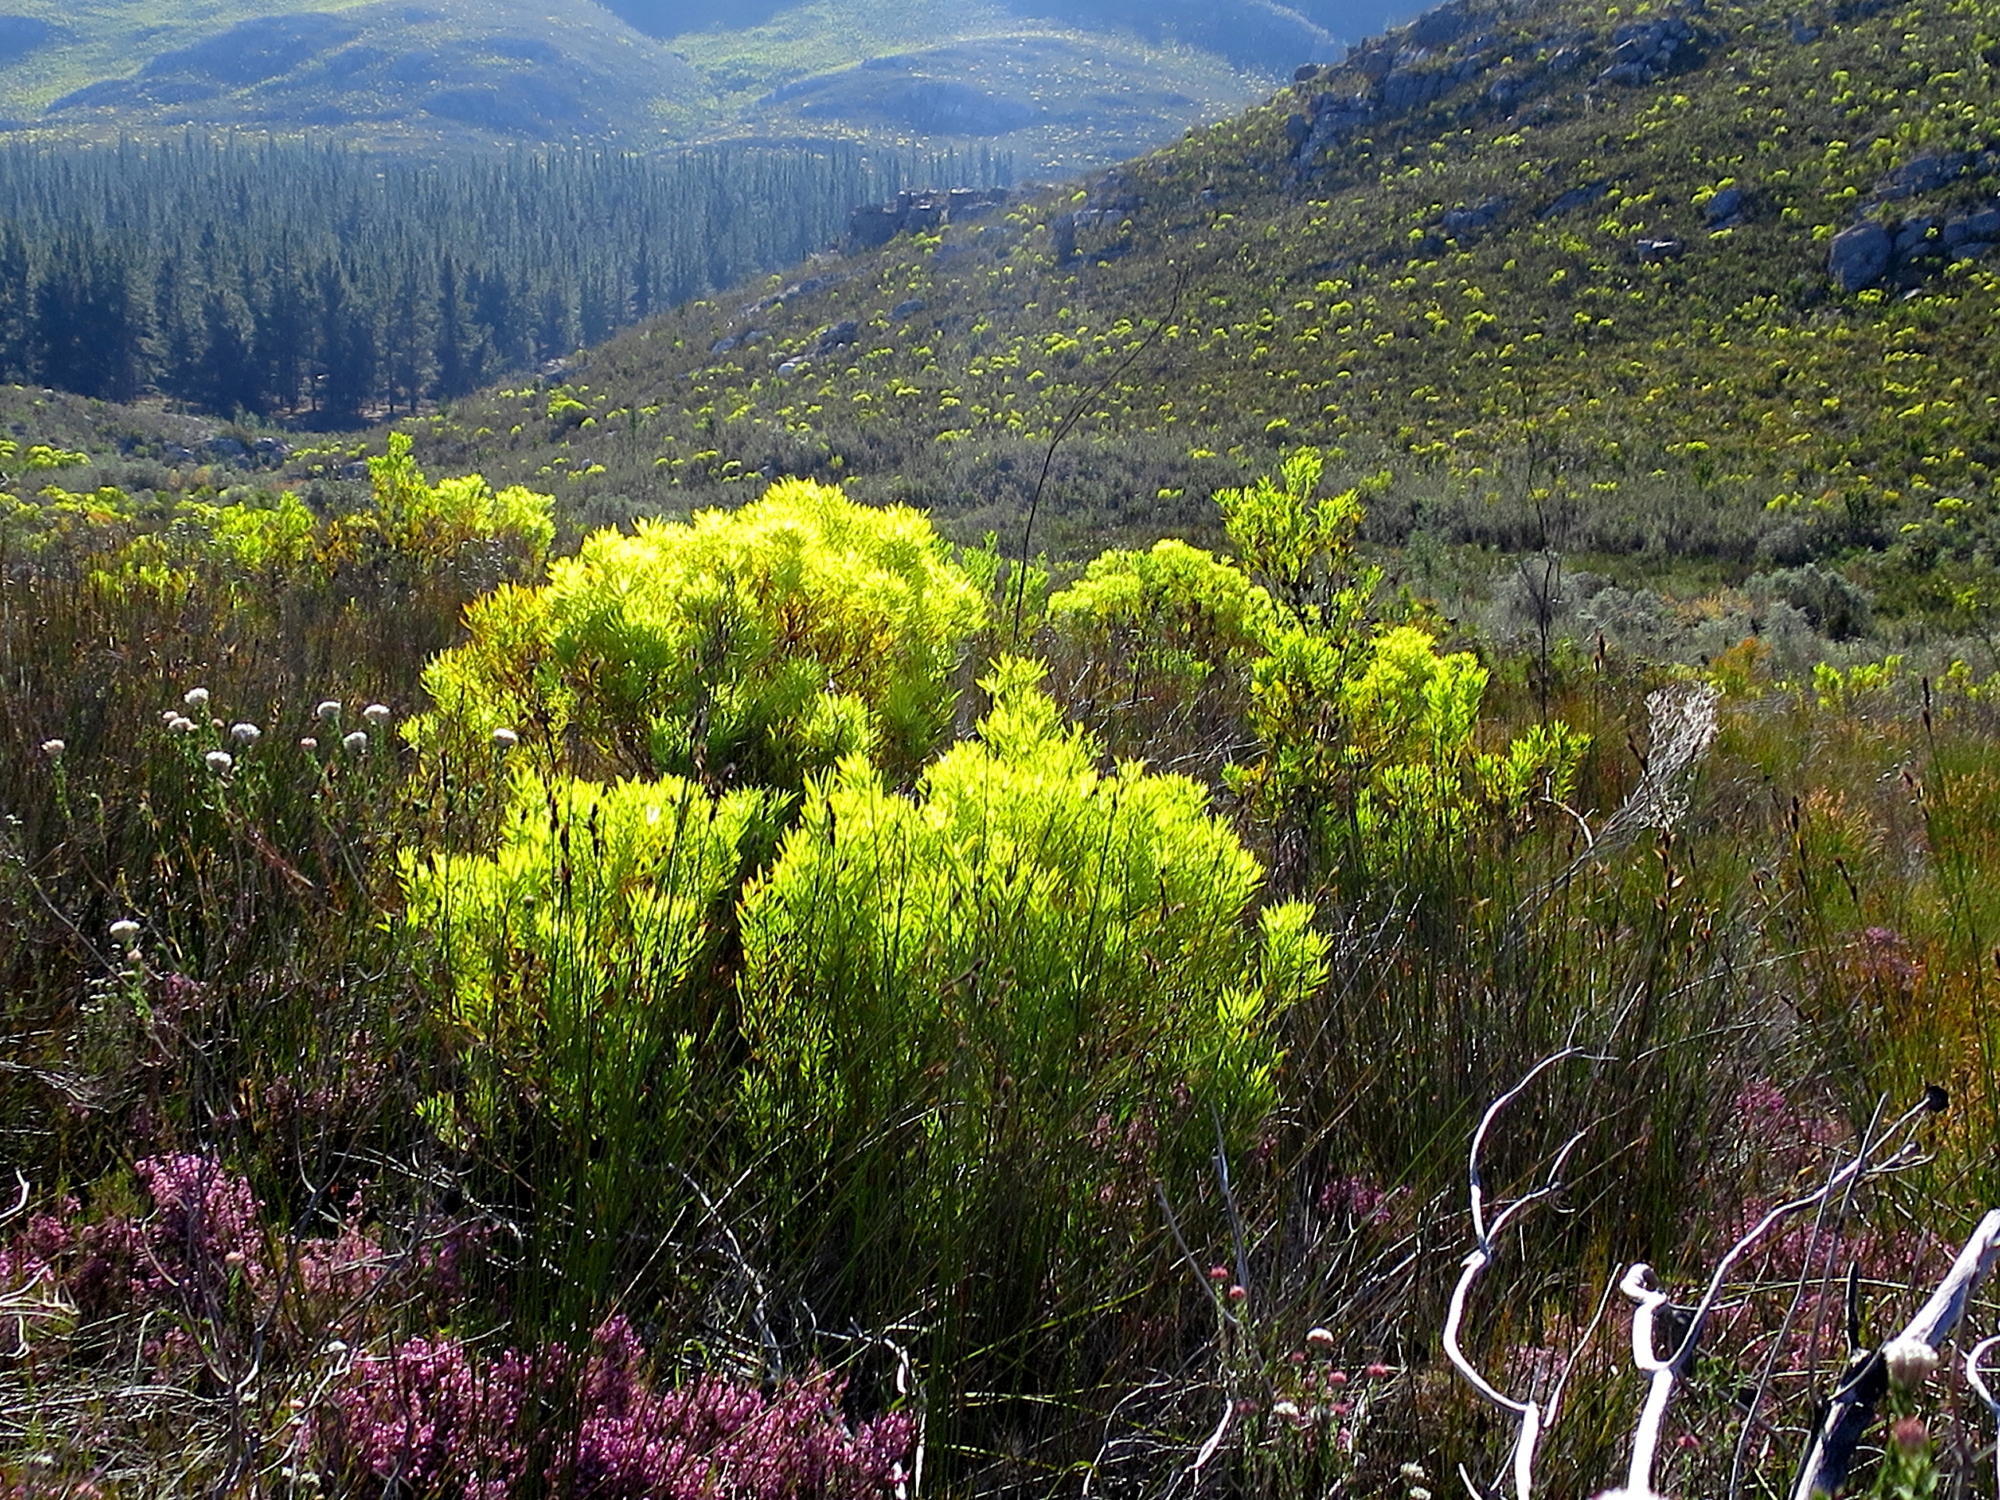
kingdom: Plantae
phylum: Tracheophyta
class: Magnoliopsida
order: Proteales
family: Proteaceae
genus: Leucadendron
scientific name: Leucadendron salignum
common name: Common sunshine conebush
